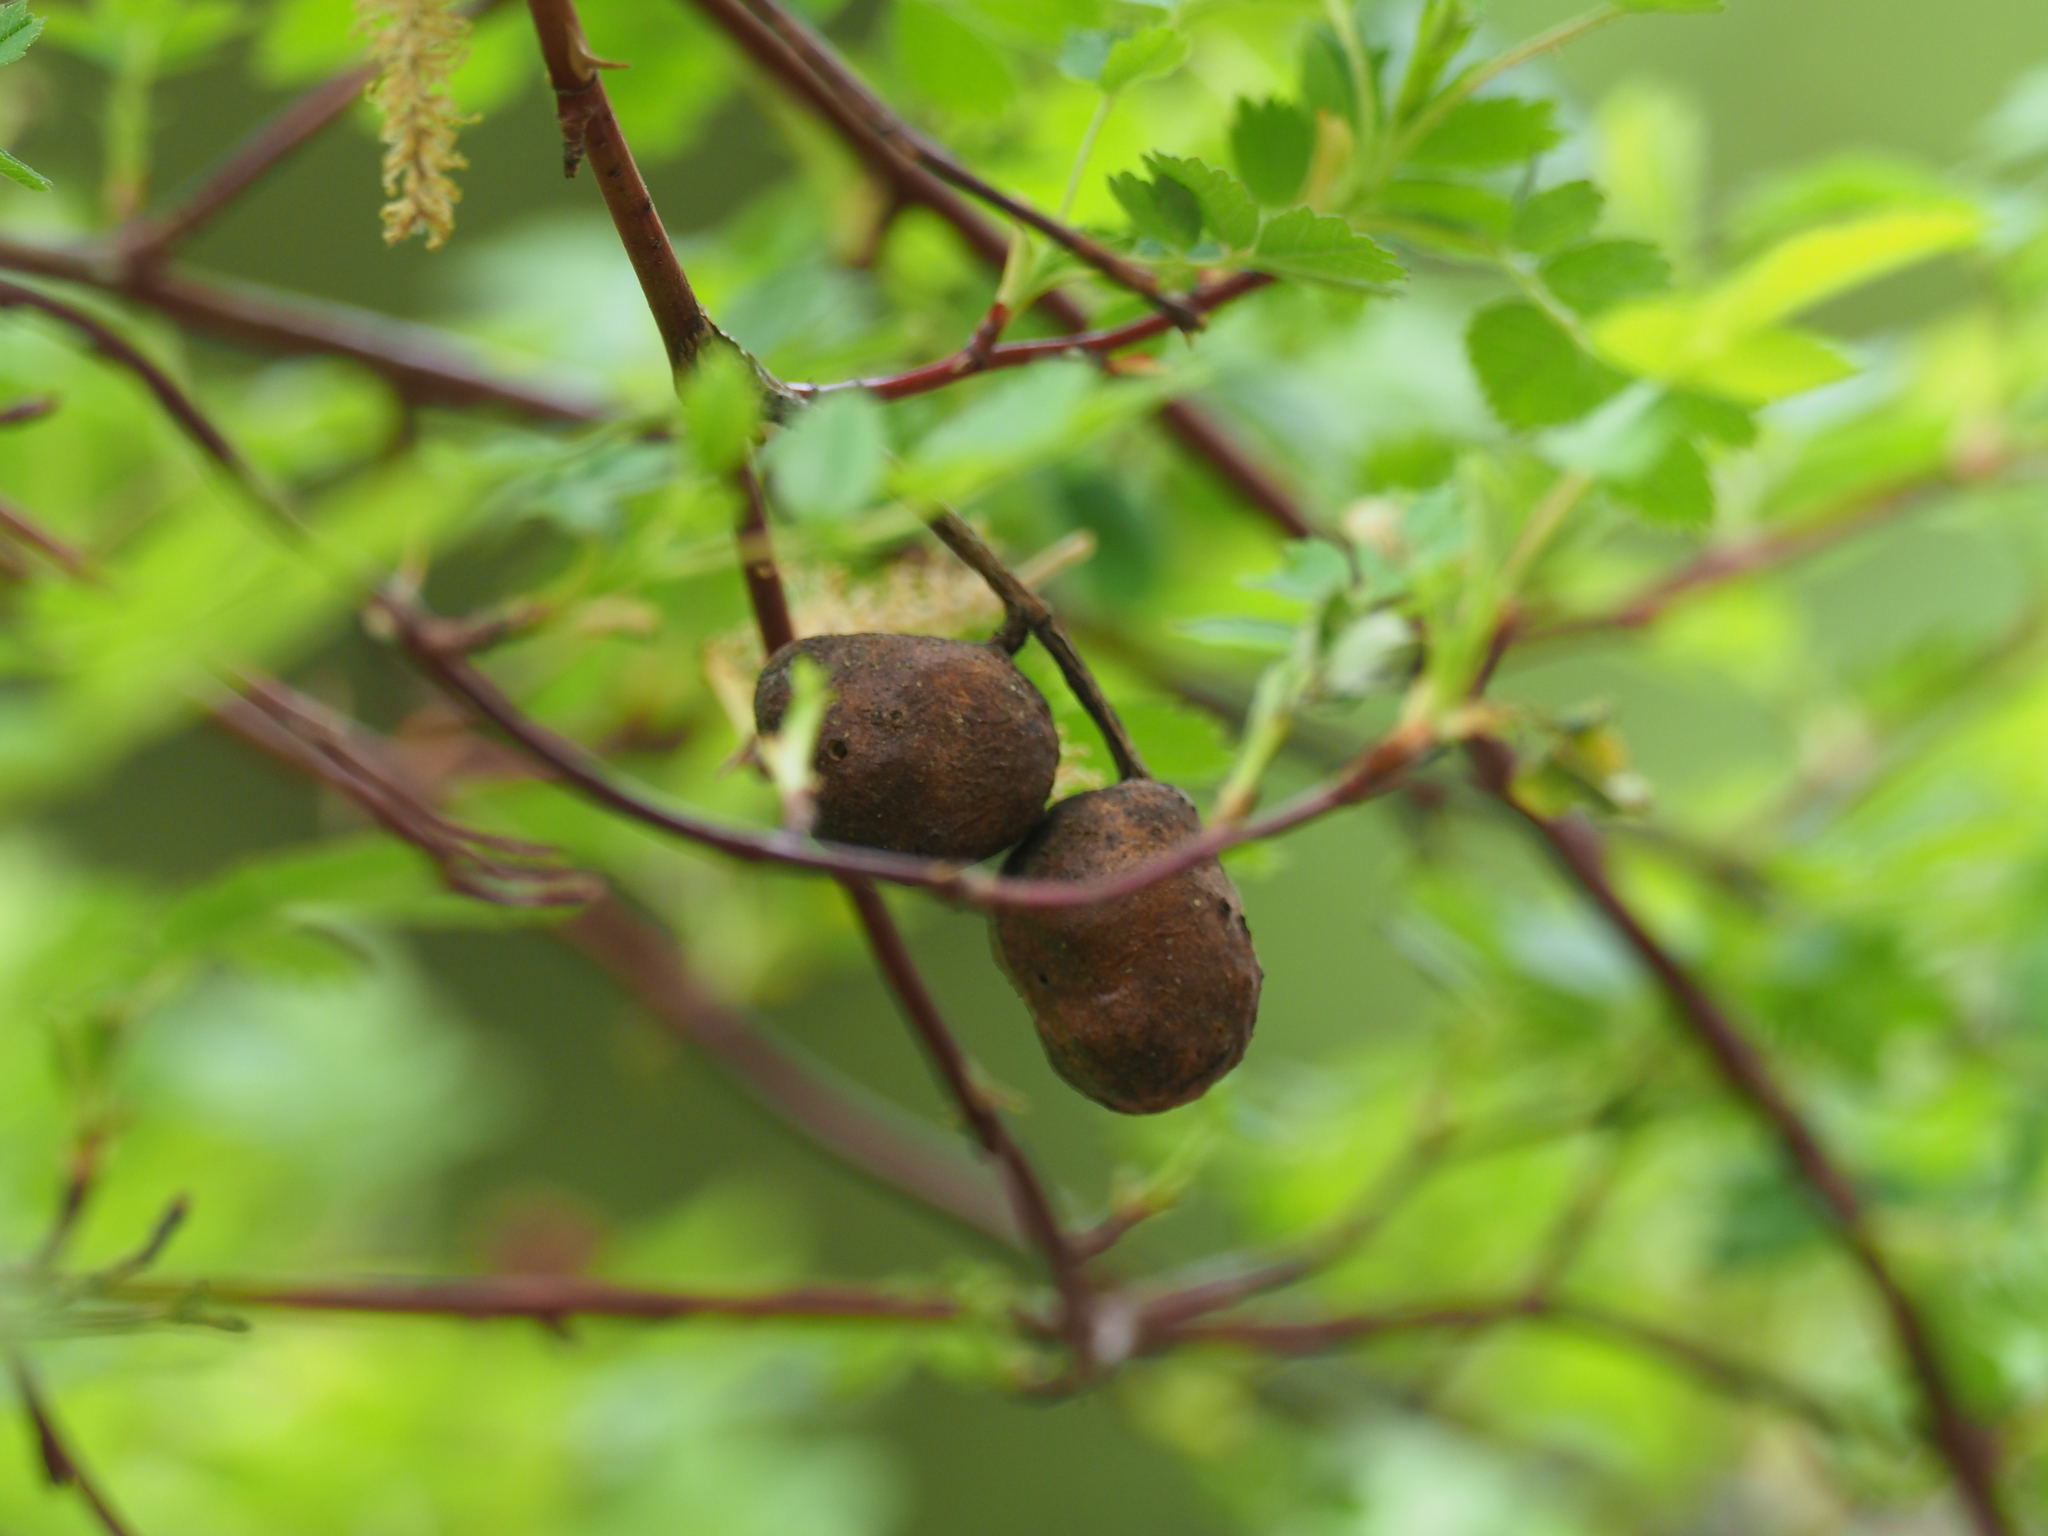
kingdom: Animalia
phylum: Arthropoda
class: Insecta
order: Hymenoptera
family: Cynipidae
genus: Diplolepis
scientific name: Diplolepis variabilis
